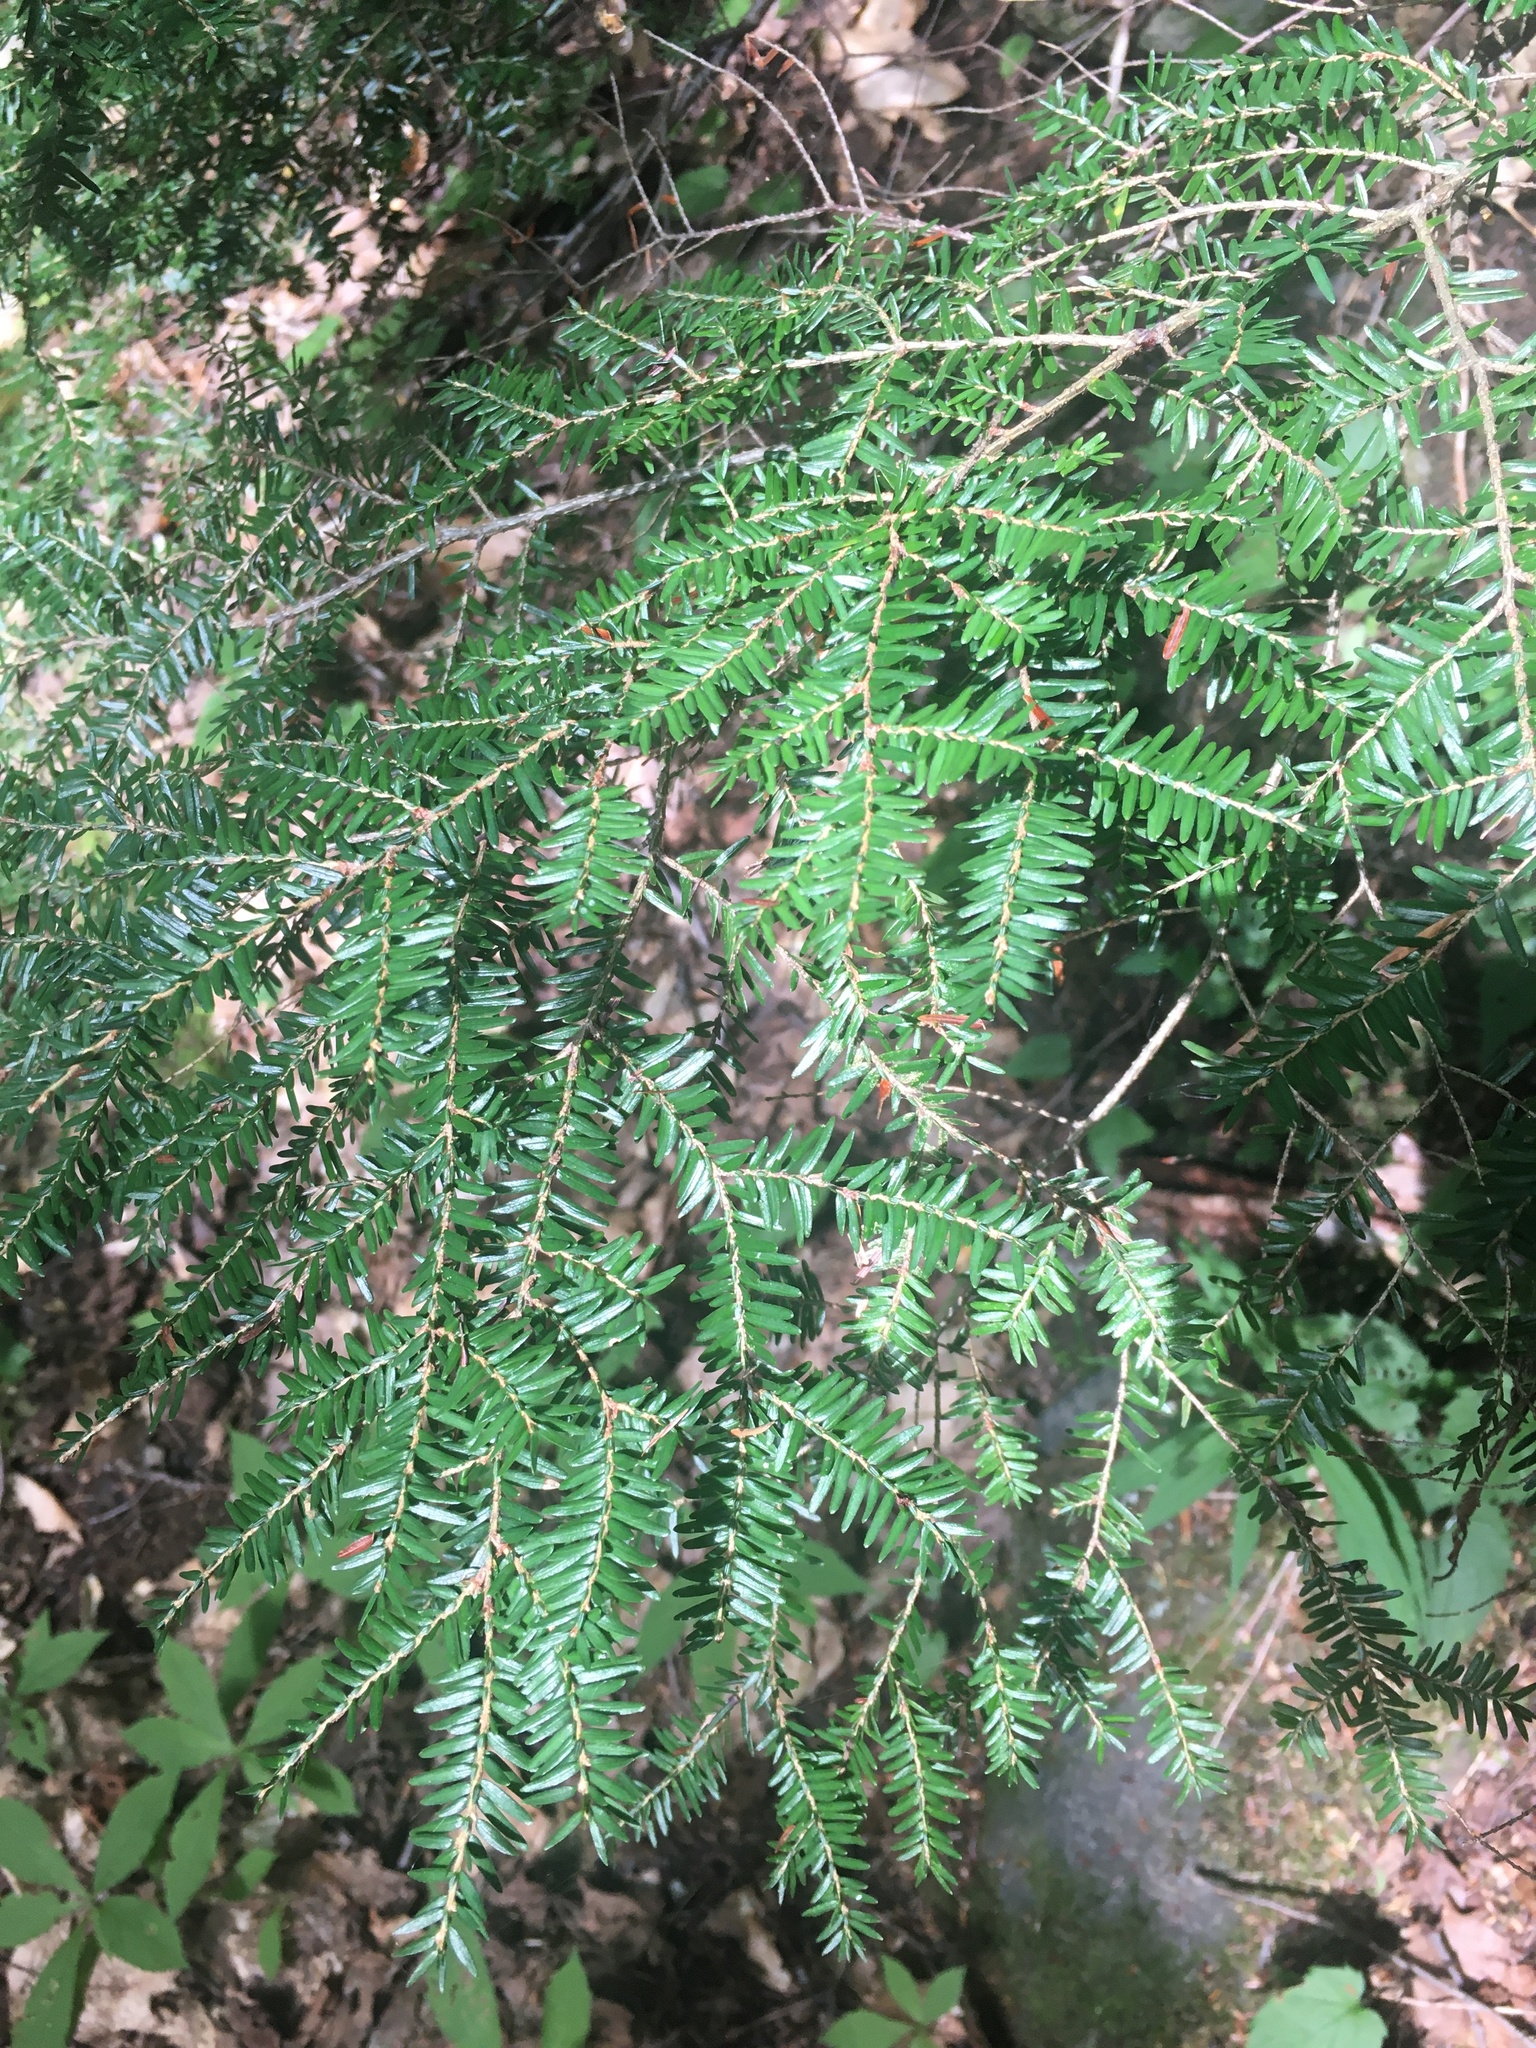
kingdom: Plantae
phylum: Tracheophyta
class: Pinopsida
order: Pinales
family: Pinaceae
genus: Tsuga
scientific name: Tsuga canadensis
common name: Eastern hemlock
